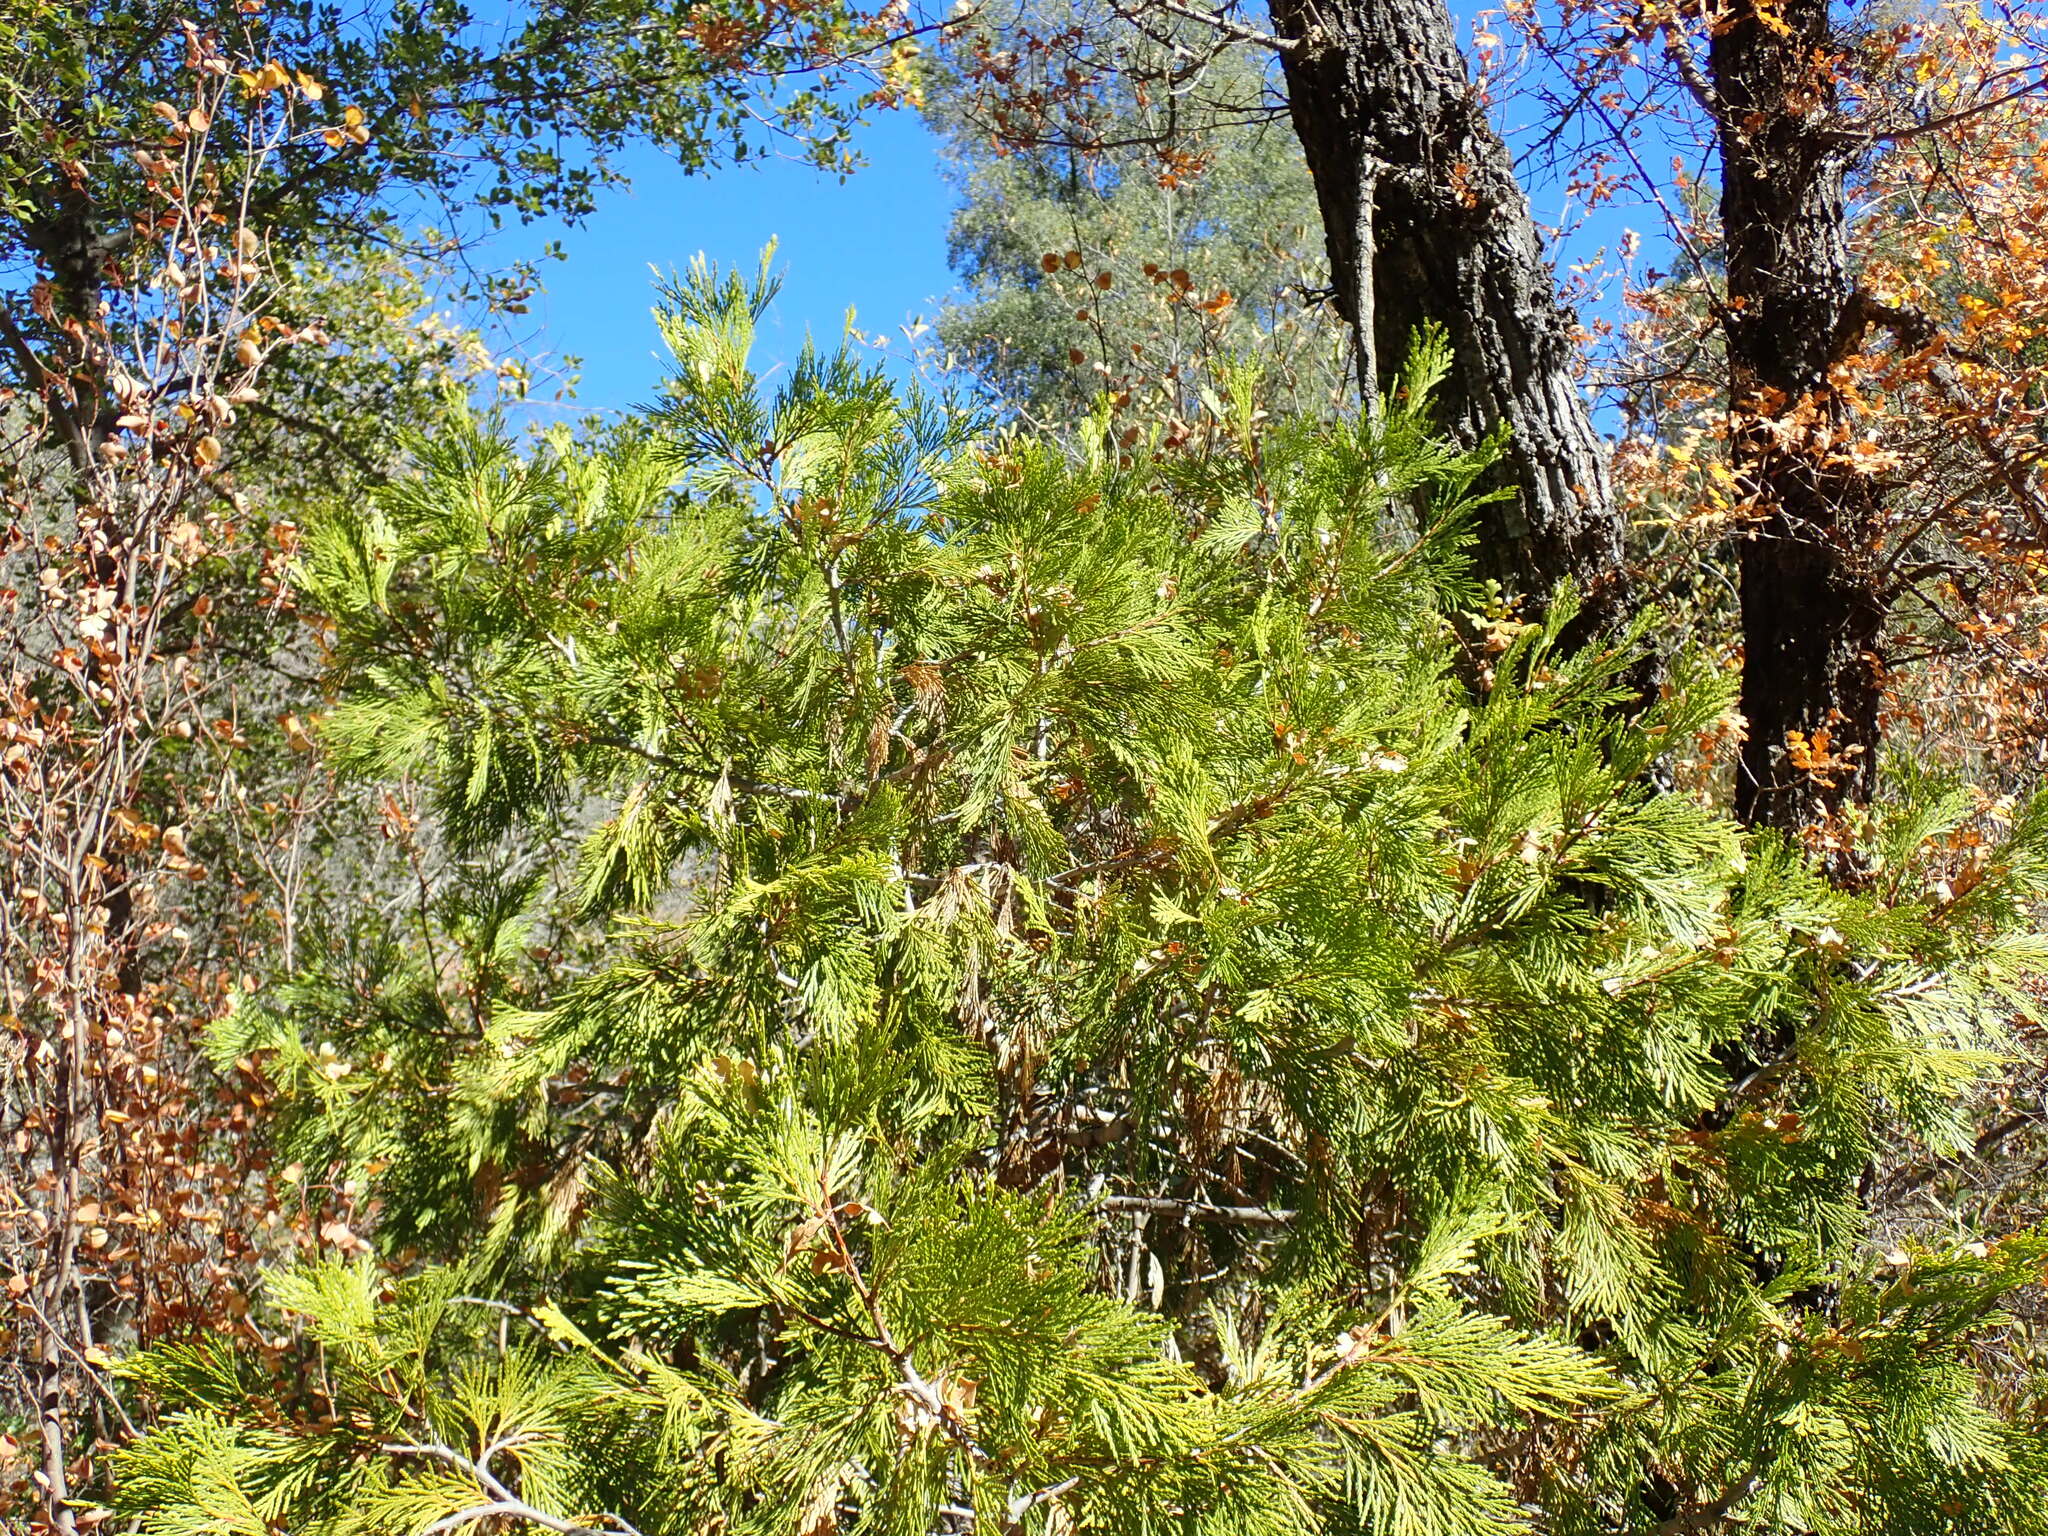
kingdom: Plantae
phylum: Tracheophyta
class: Pinopsida
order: Pinales
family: Cupressaceae
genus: Calocedrus
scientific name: Calocedrus decurrens
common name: Californian incense-cedar
